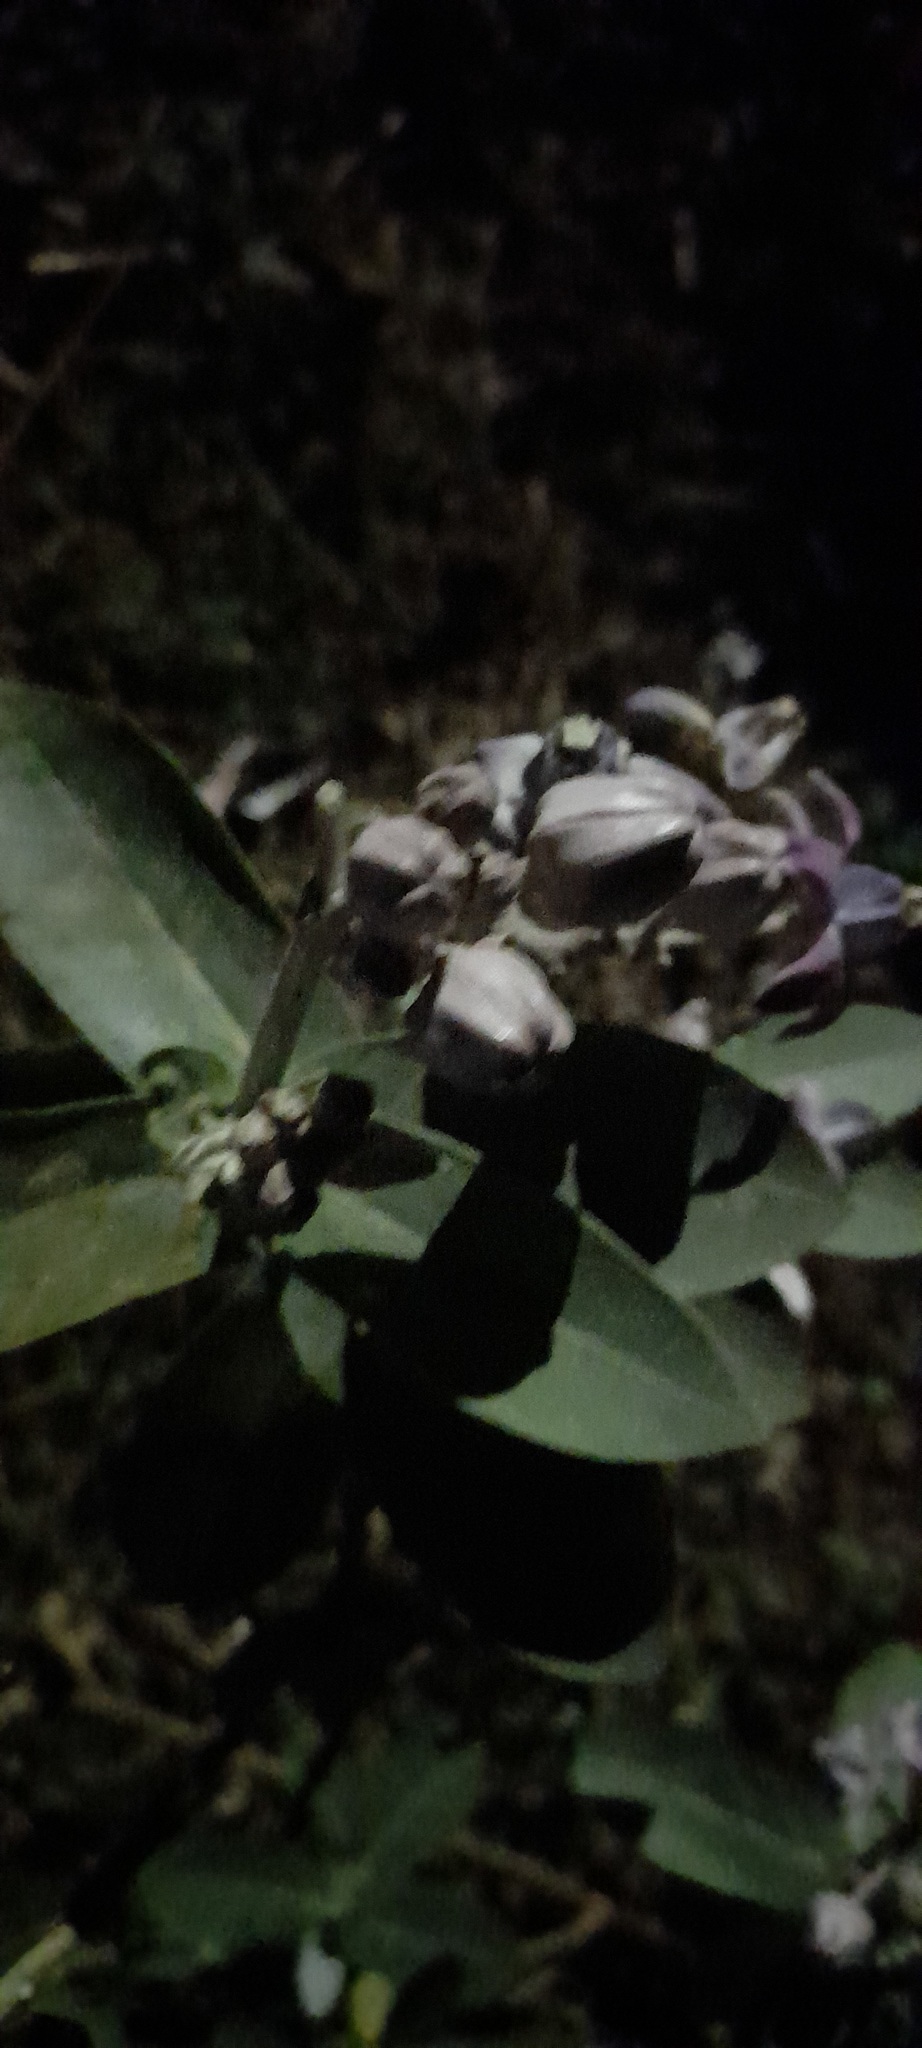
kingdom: Plantae
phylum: Tracheophyta
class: Magnoliopsida
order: Gentianales
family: Apocynaceae
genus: Calotropis
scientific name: Calotropis gigantea
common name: Crown flower
